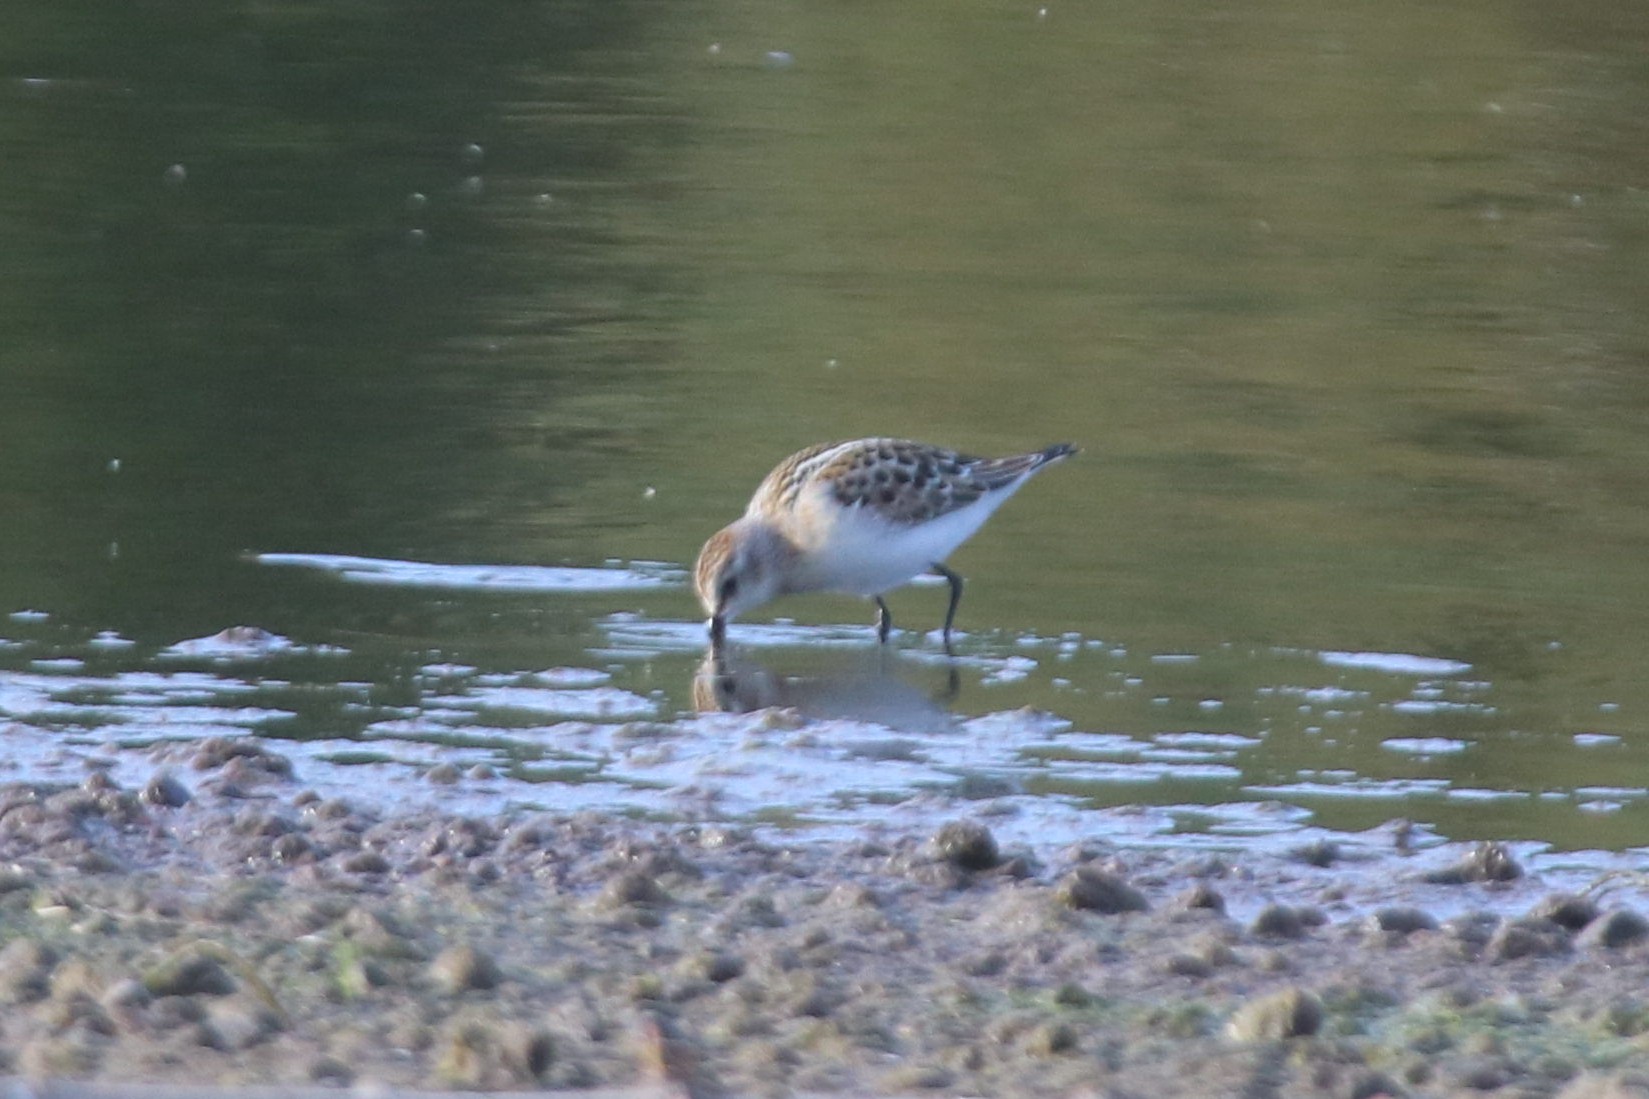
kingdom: Animalia
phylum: Chordata
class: Aves
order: Charadriiformes
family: Scolopacidae
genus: Calidris
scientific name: Calidris minuta
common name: Little stint
